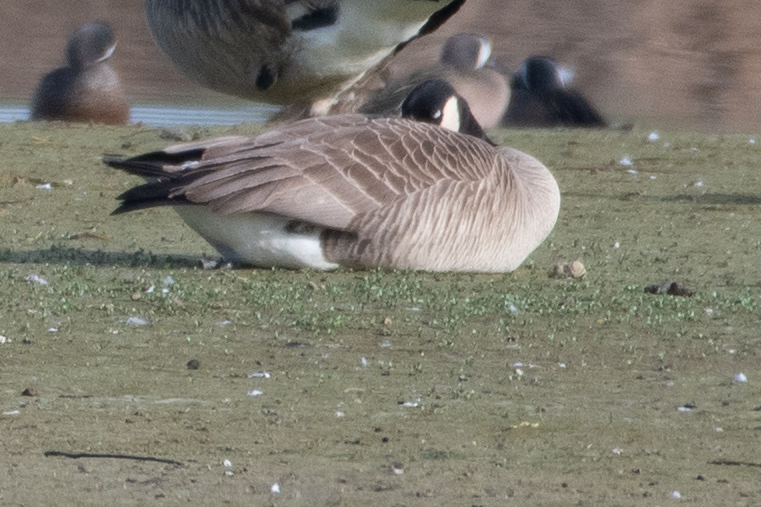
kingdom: Animalia
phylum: Chordata
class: Aves
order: Anseriformes
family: Anatidae
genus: Branta
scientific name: Branta canadensis
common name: Canada goose
